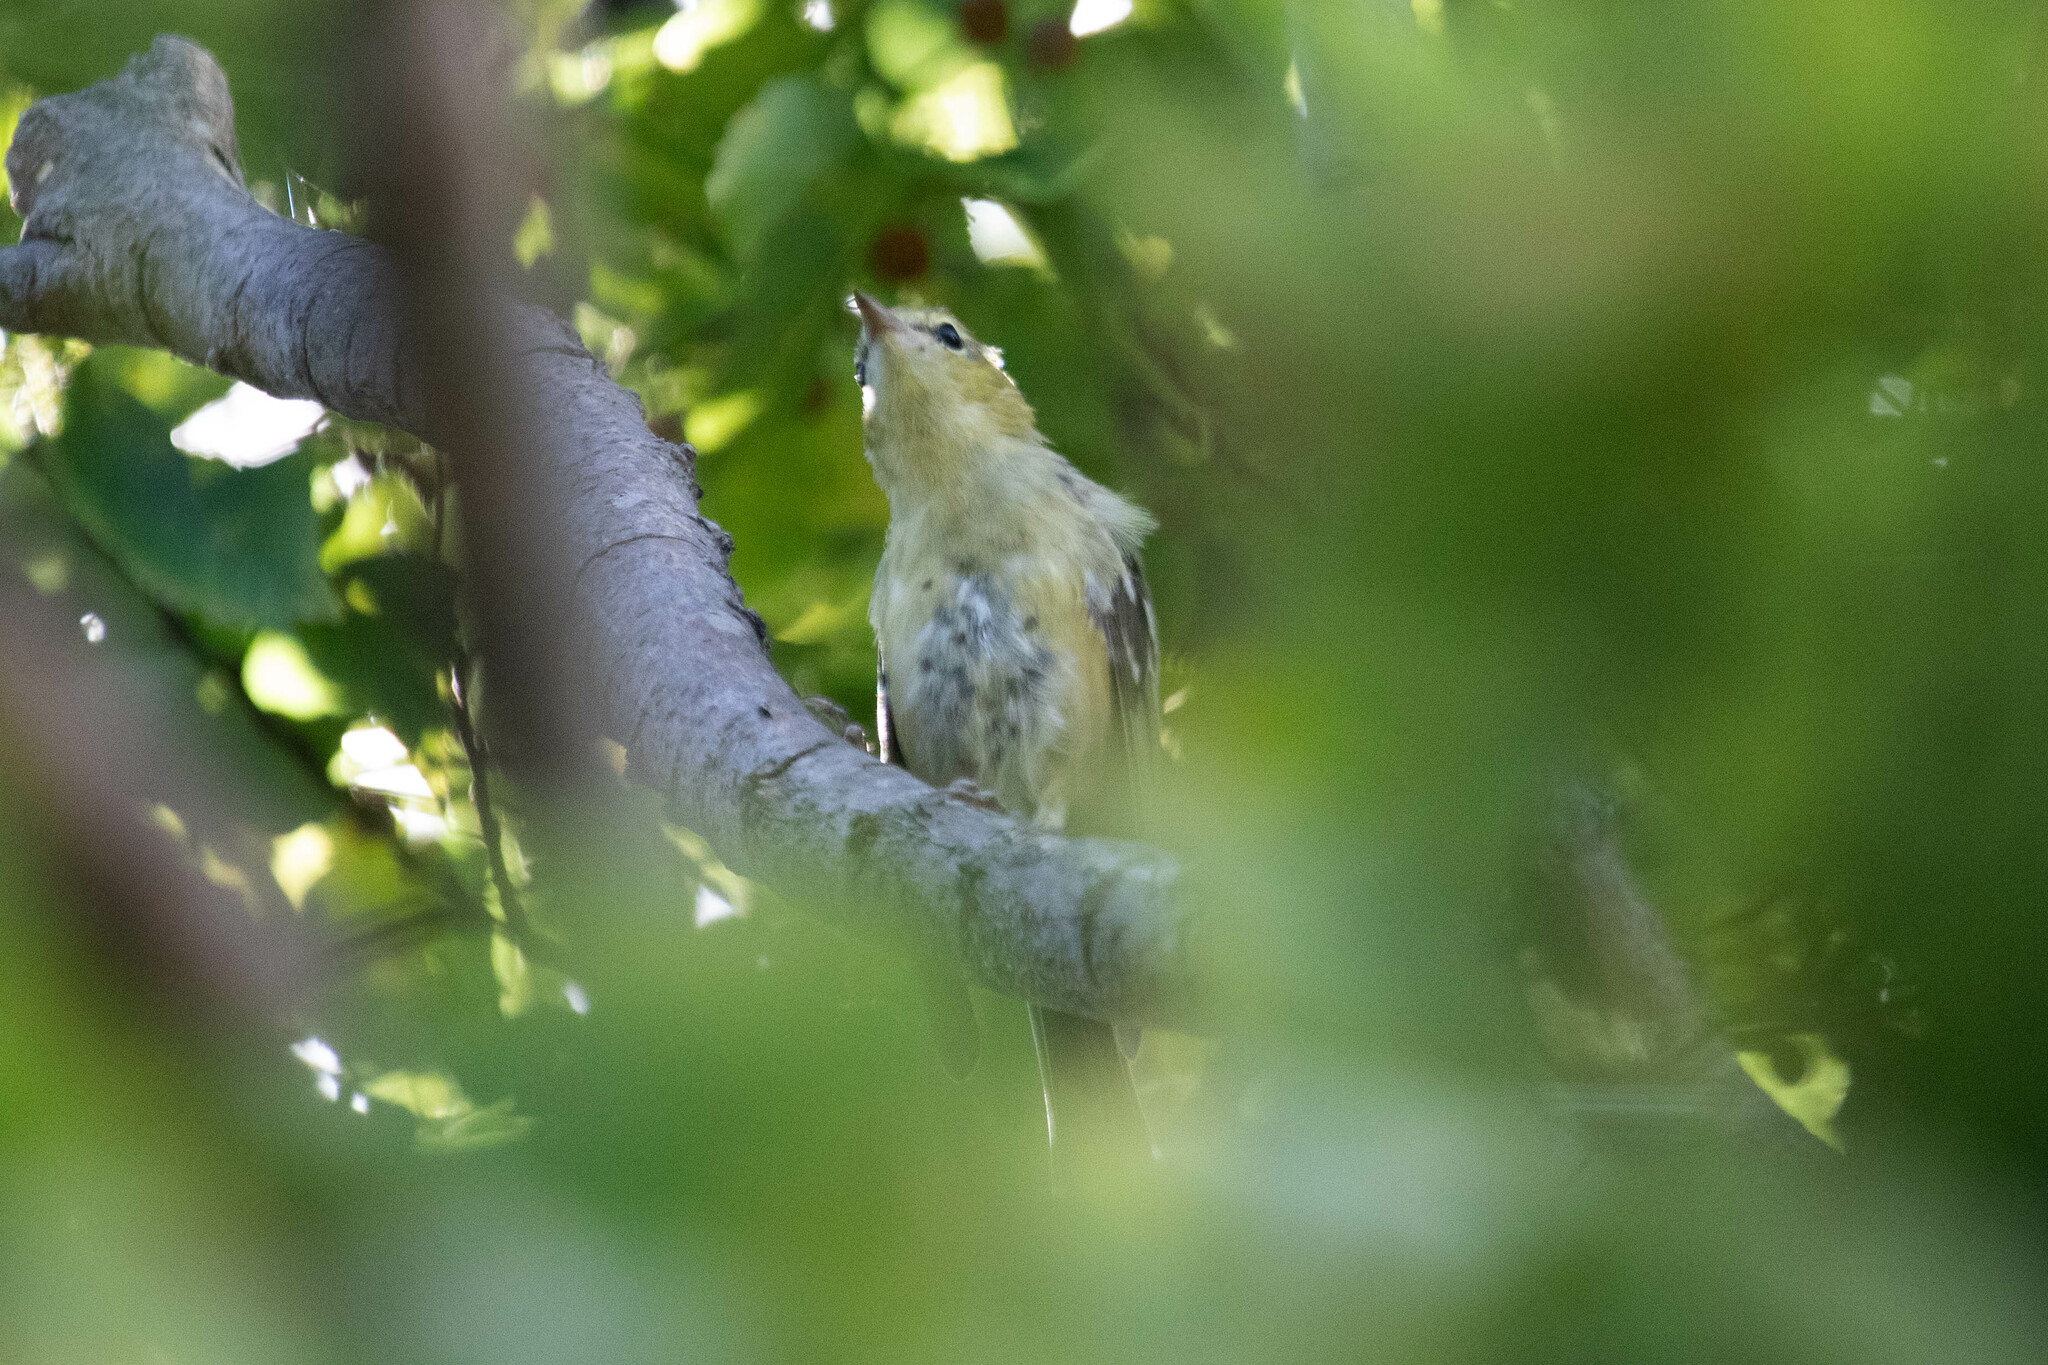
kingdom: Animalia
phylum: Chordata
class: Aves
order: Passeriformes
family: Parulidae
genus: Setophaga
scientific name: Setophaga castanea
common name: Bay-breasted warbler
